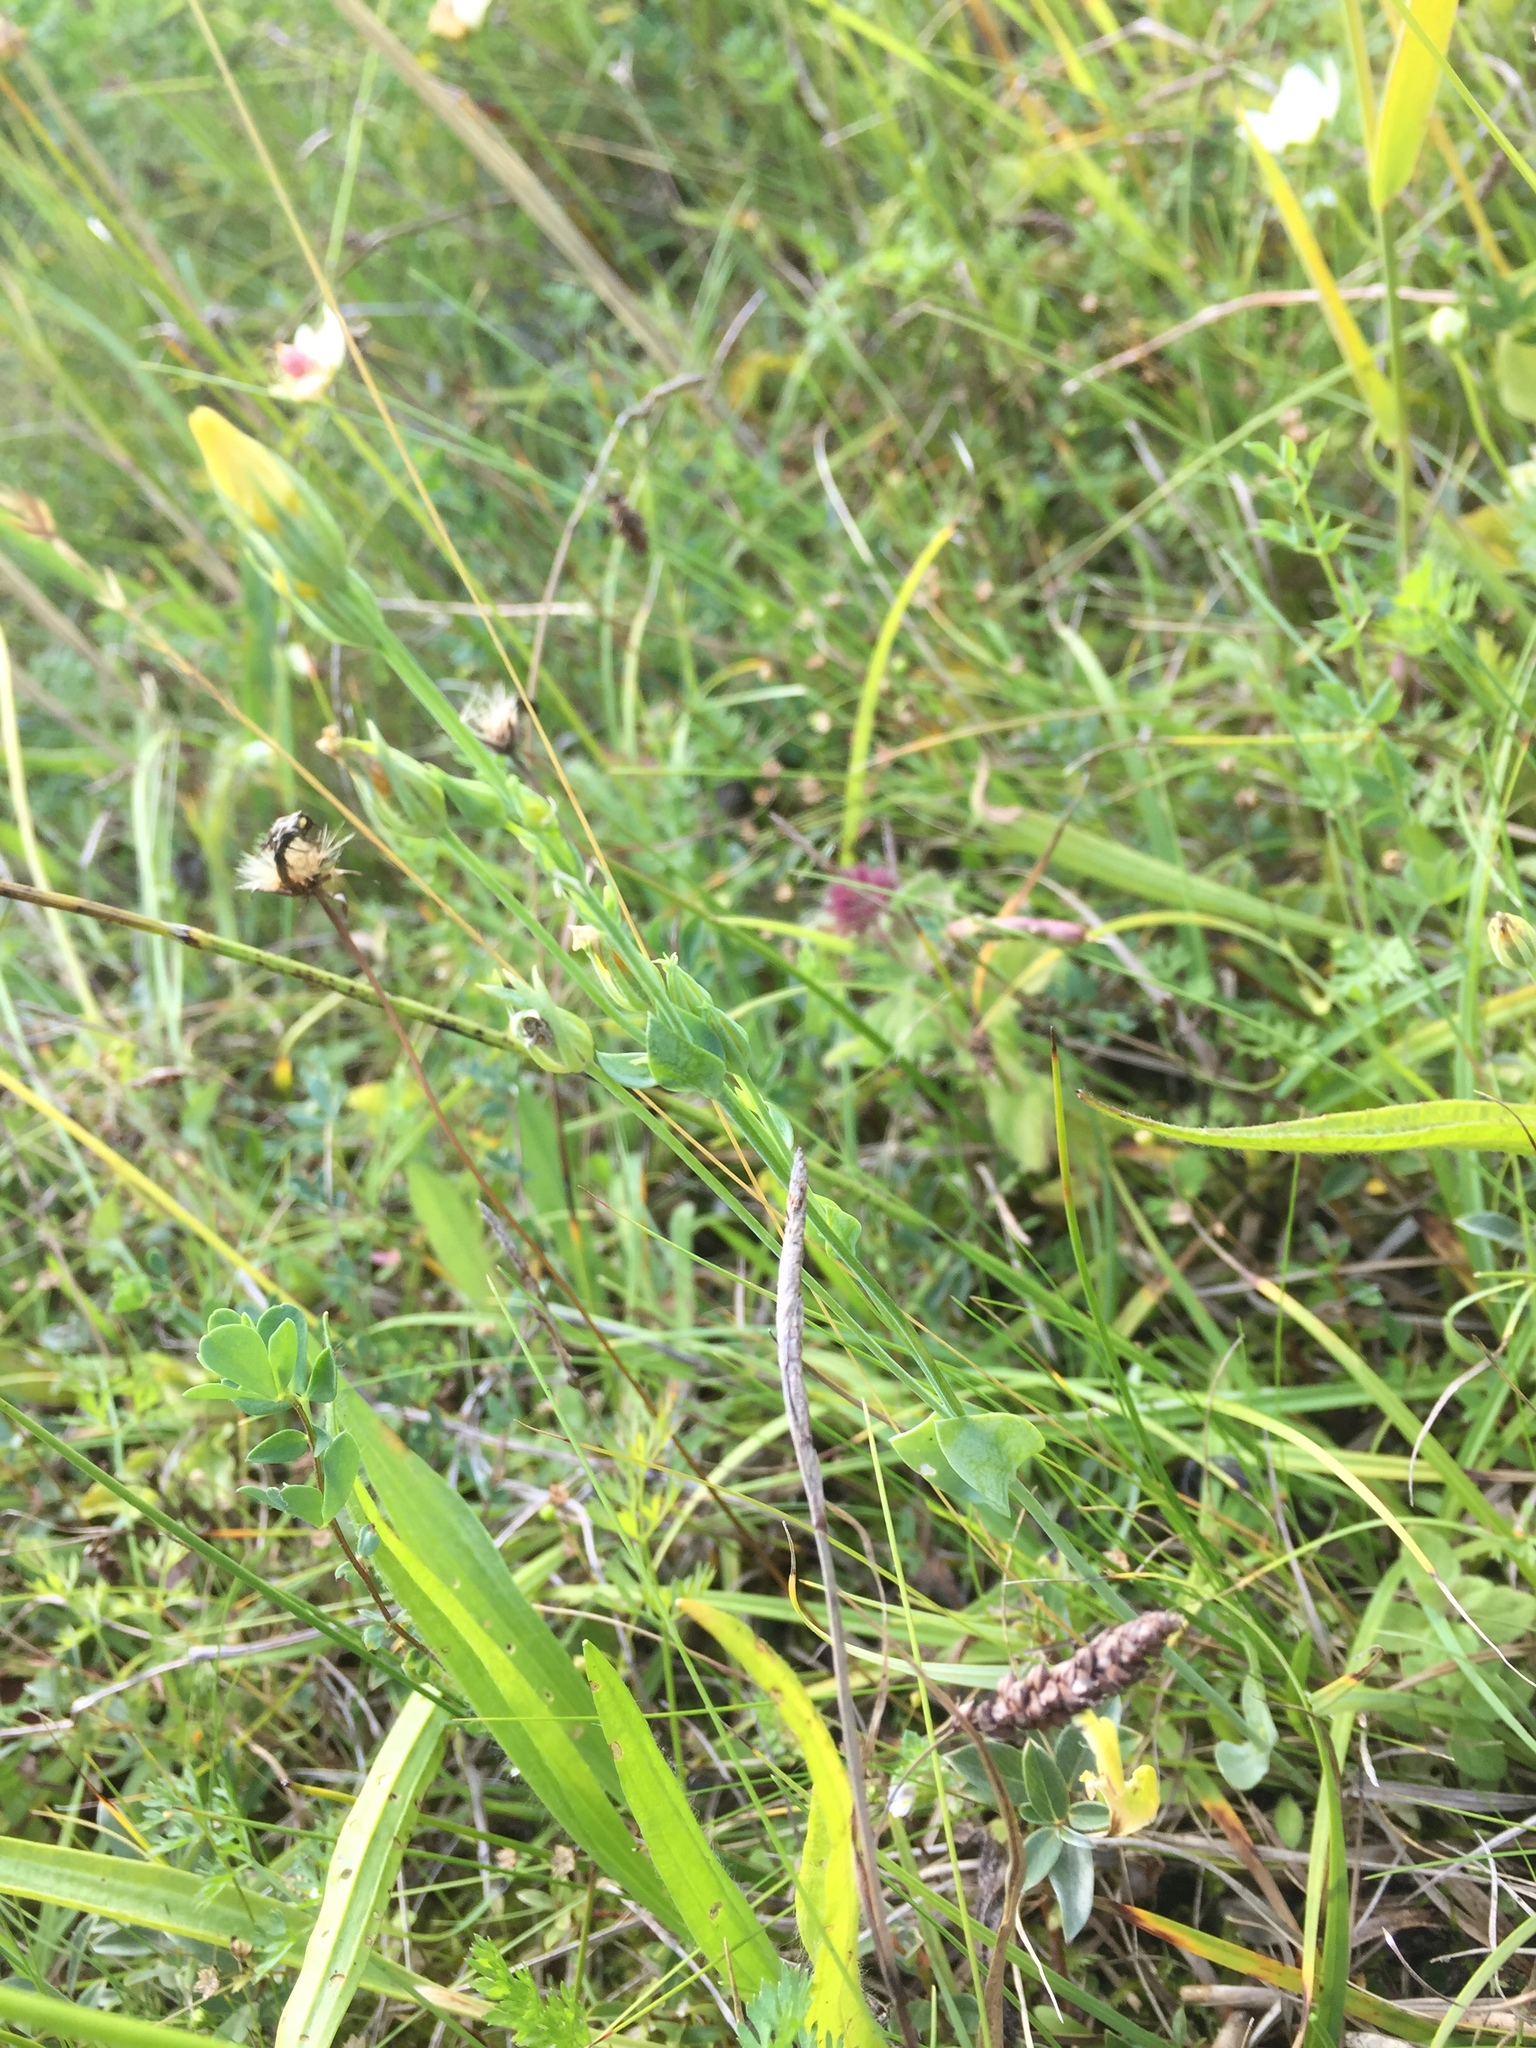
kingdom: Plantae
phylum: Tracheophyta
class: Magnoliopsida
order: Gentianales
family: Gentianaceae
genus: Blackstonia
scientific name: Blackstonia perfoliata
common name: Yellow-wort
